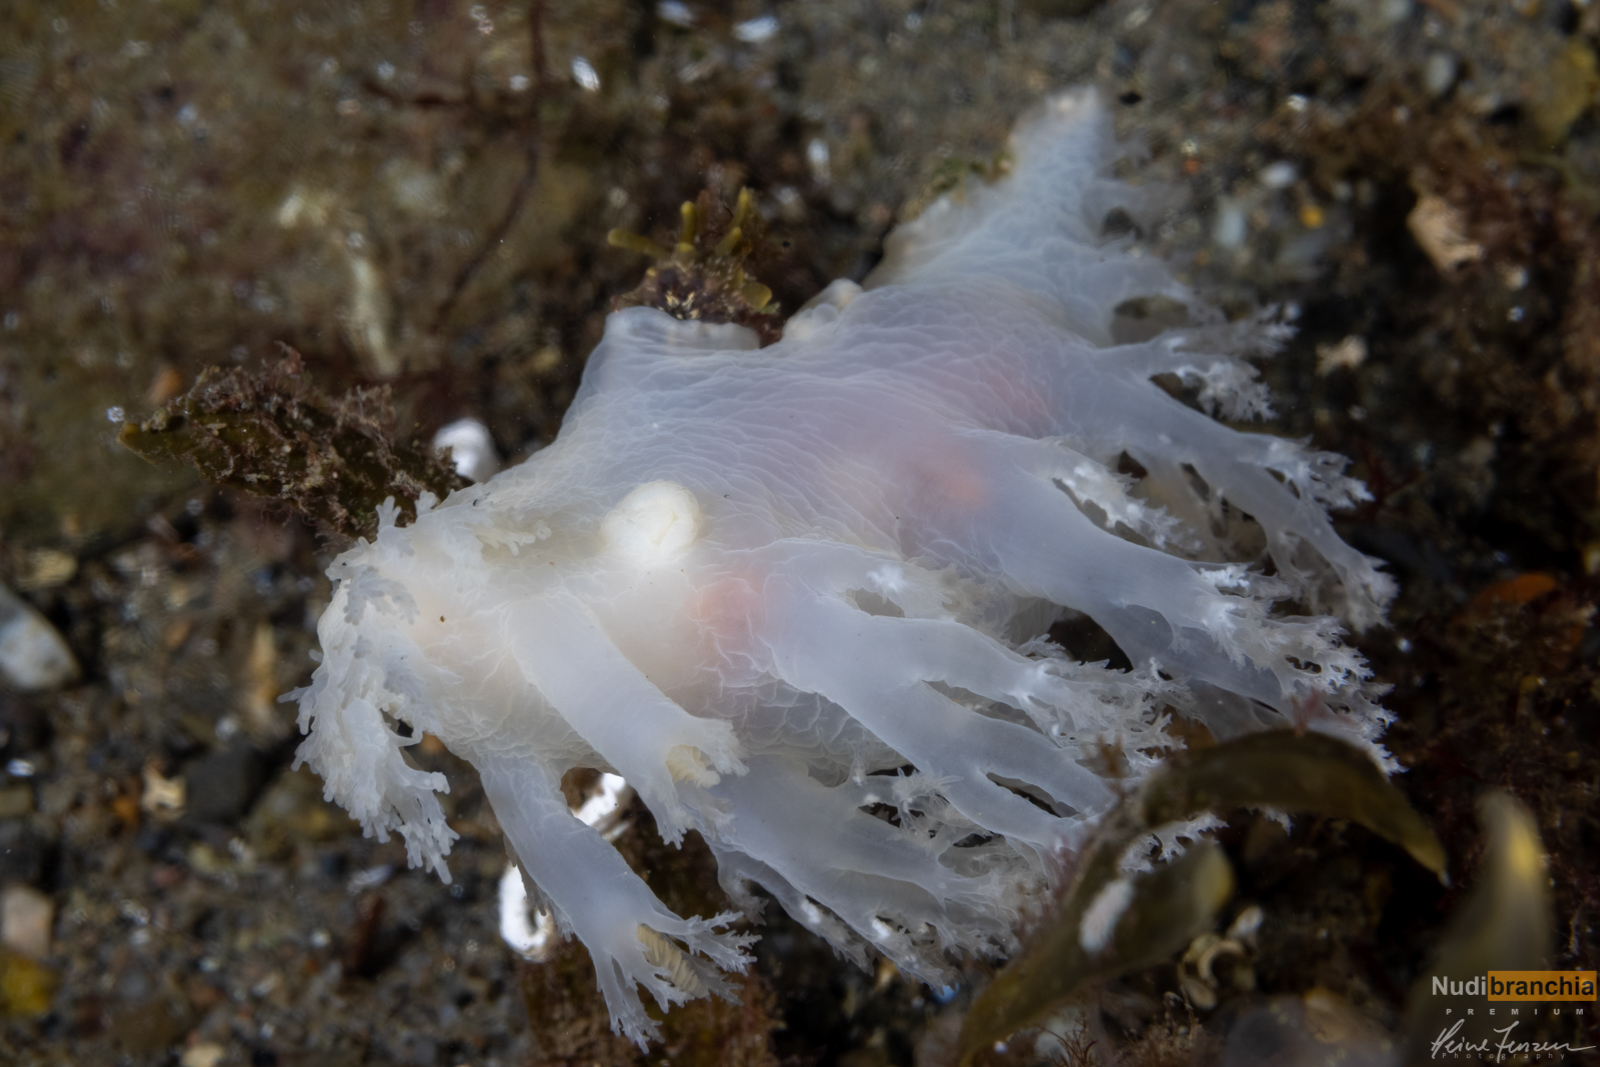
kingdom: Animalia
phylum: Mollusca
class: Gastropoda
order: Nudibranchia
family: Dendronotidae
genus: Dendronotus
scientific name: Dendronotus lacteus
